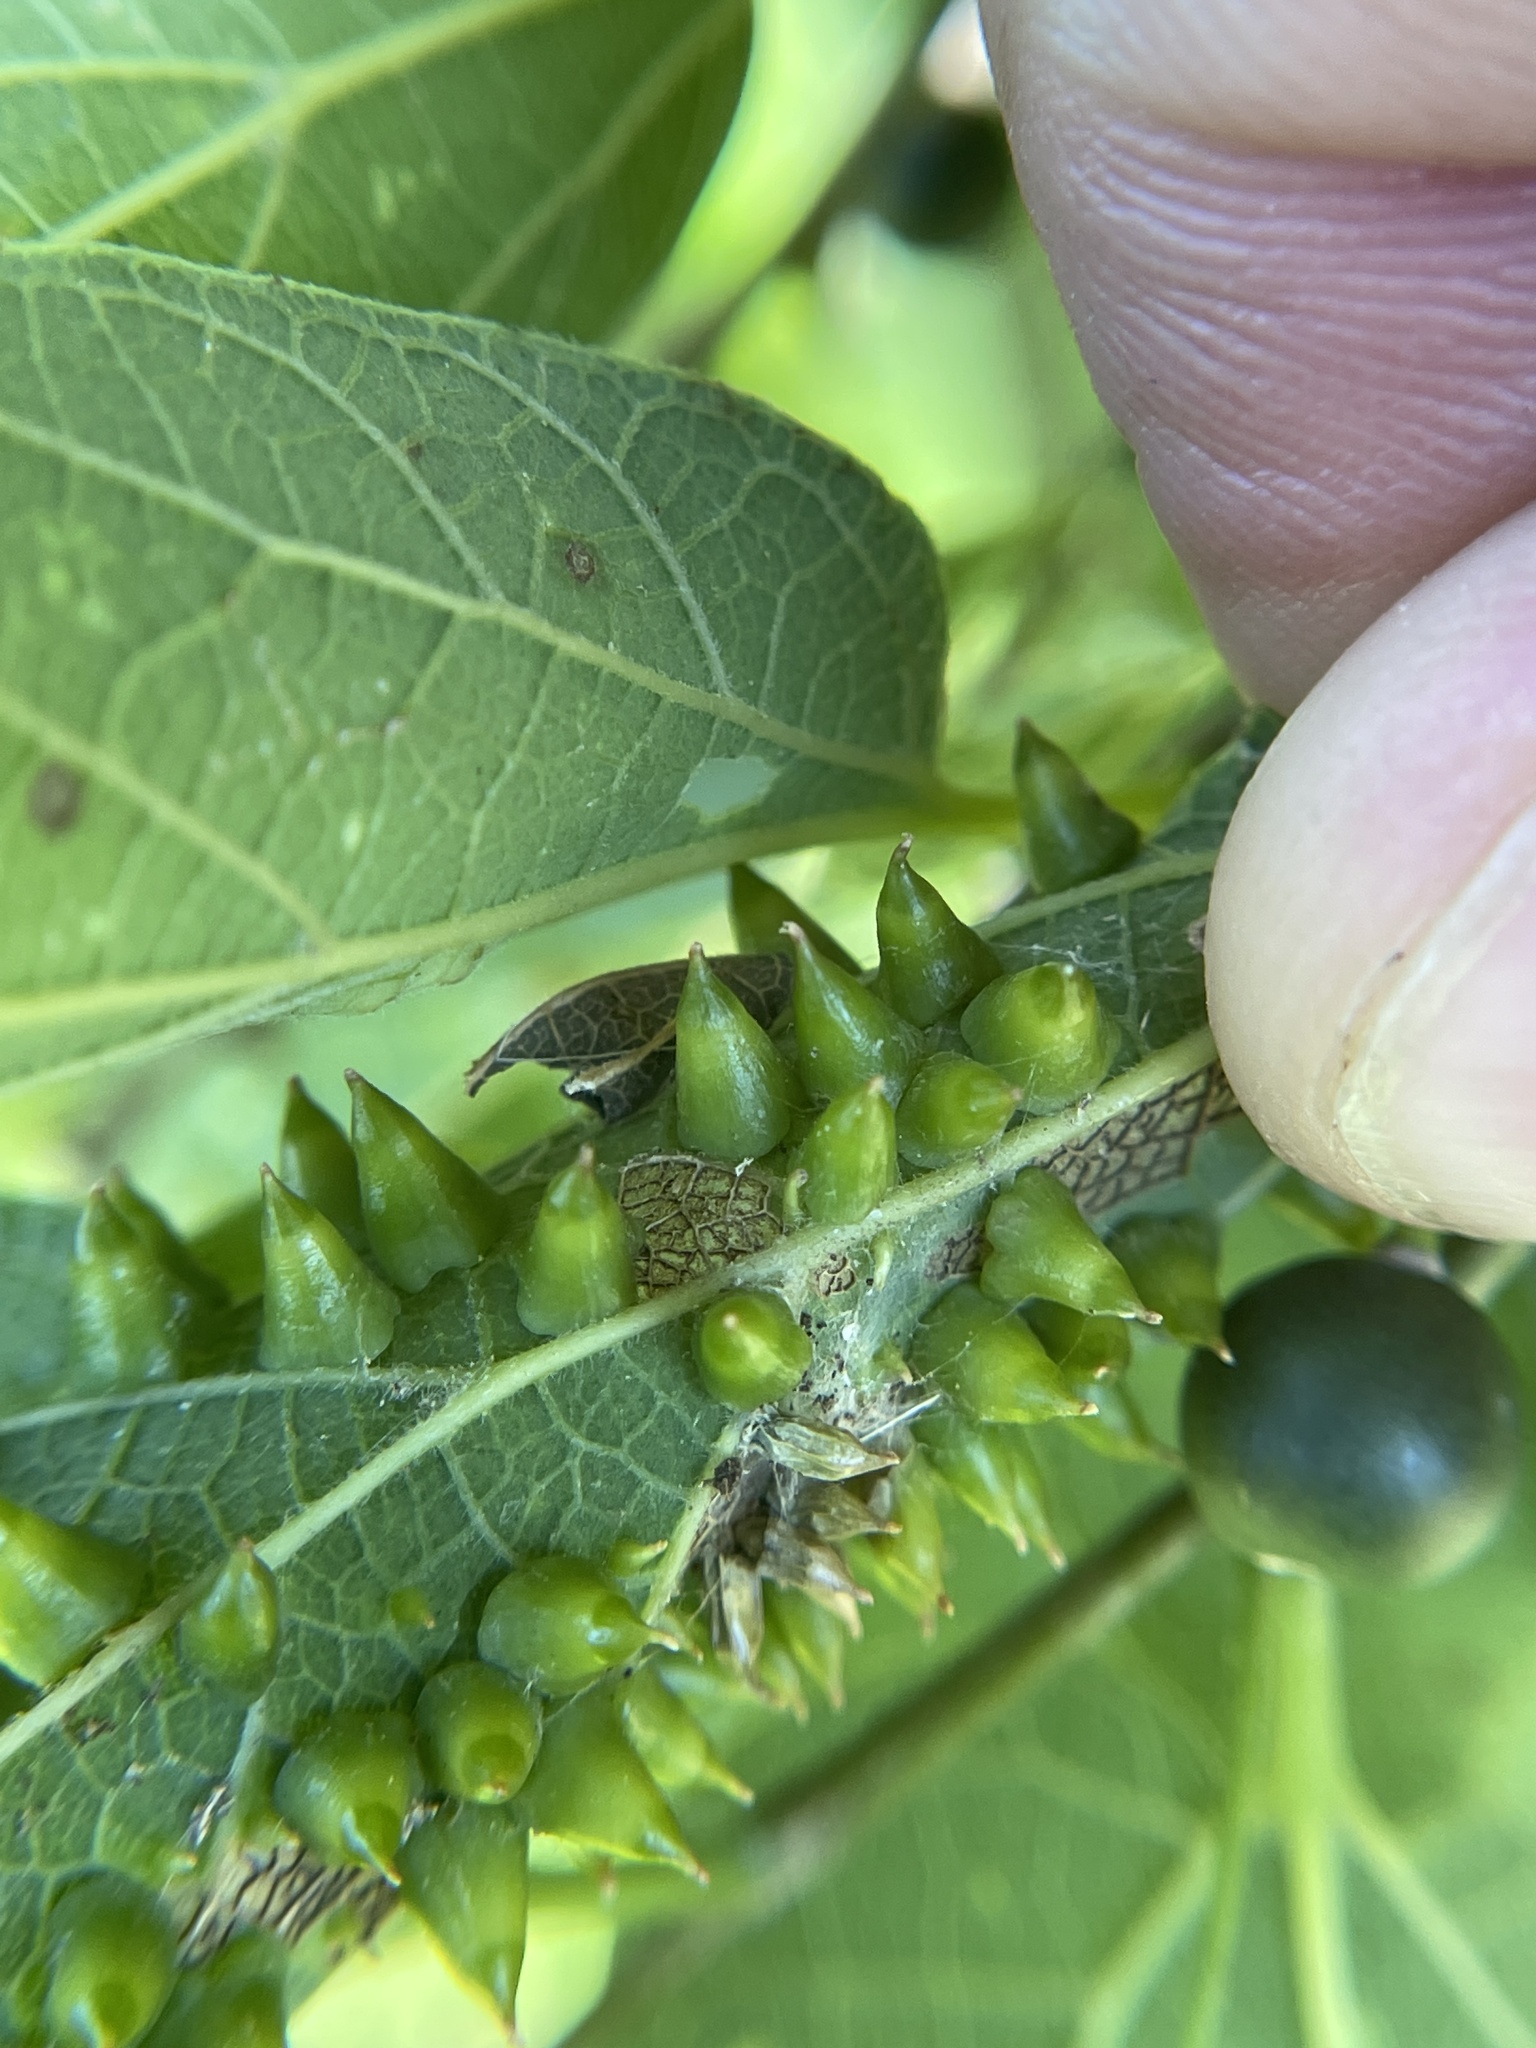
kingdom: Animalia
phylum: Arthropoda
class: Insecta
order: Diptera
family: Cecidomyiidae
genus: Celticecis
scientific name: Celticecis spiniformis
